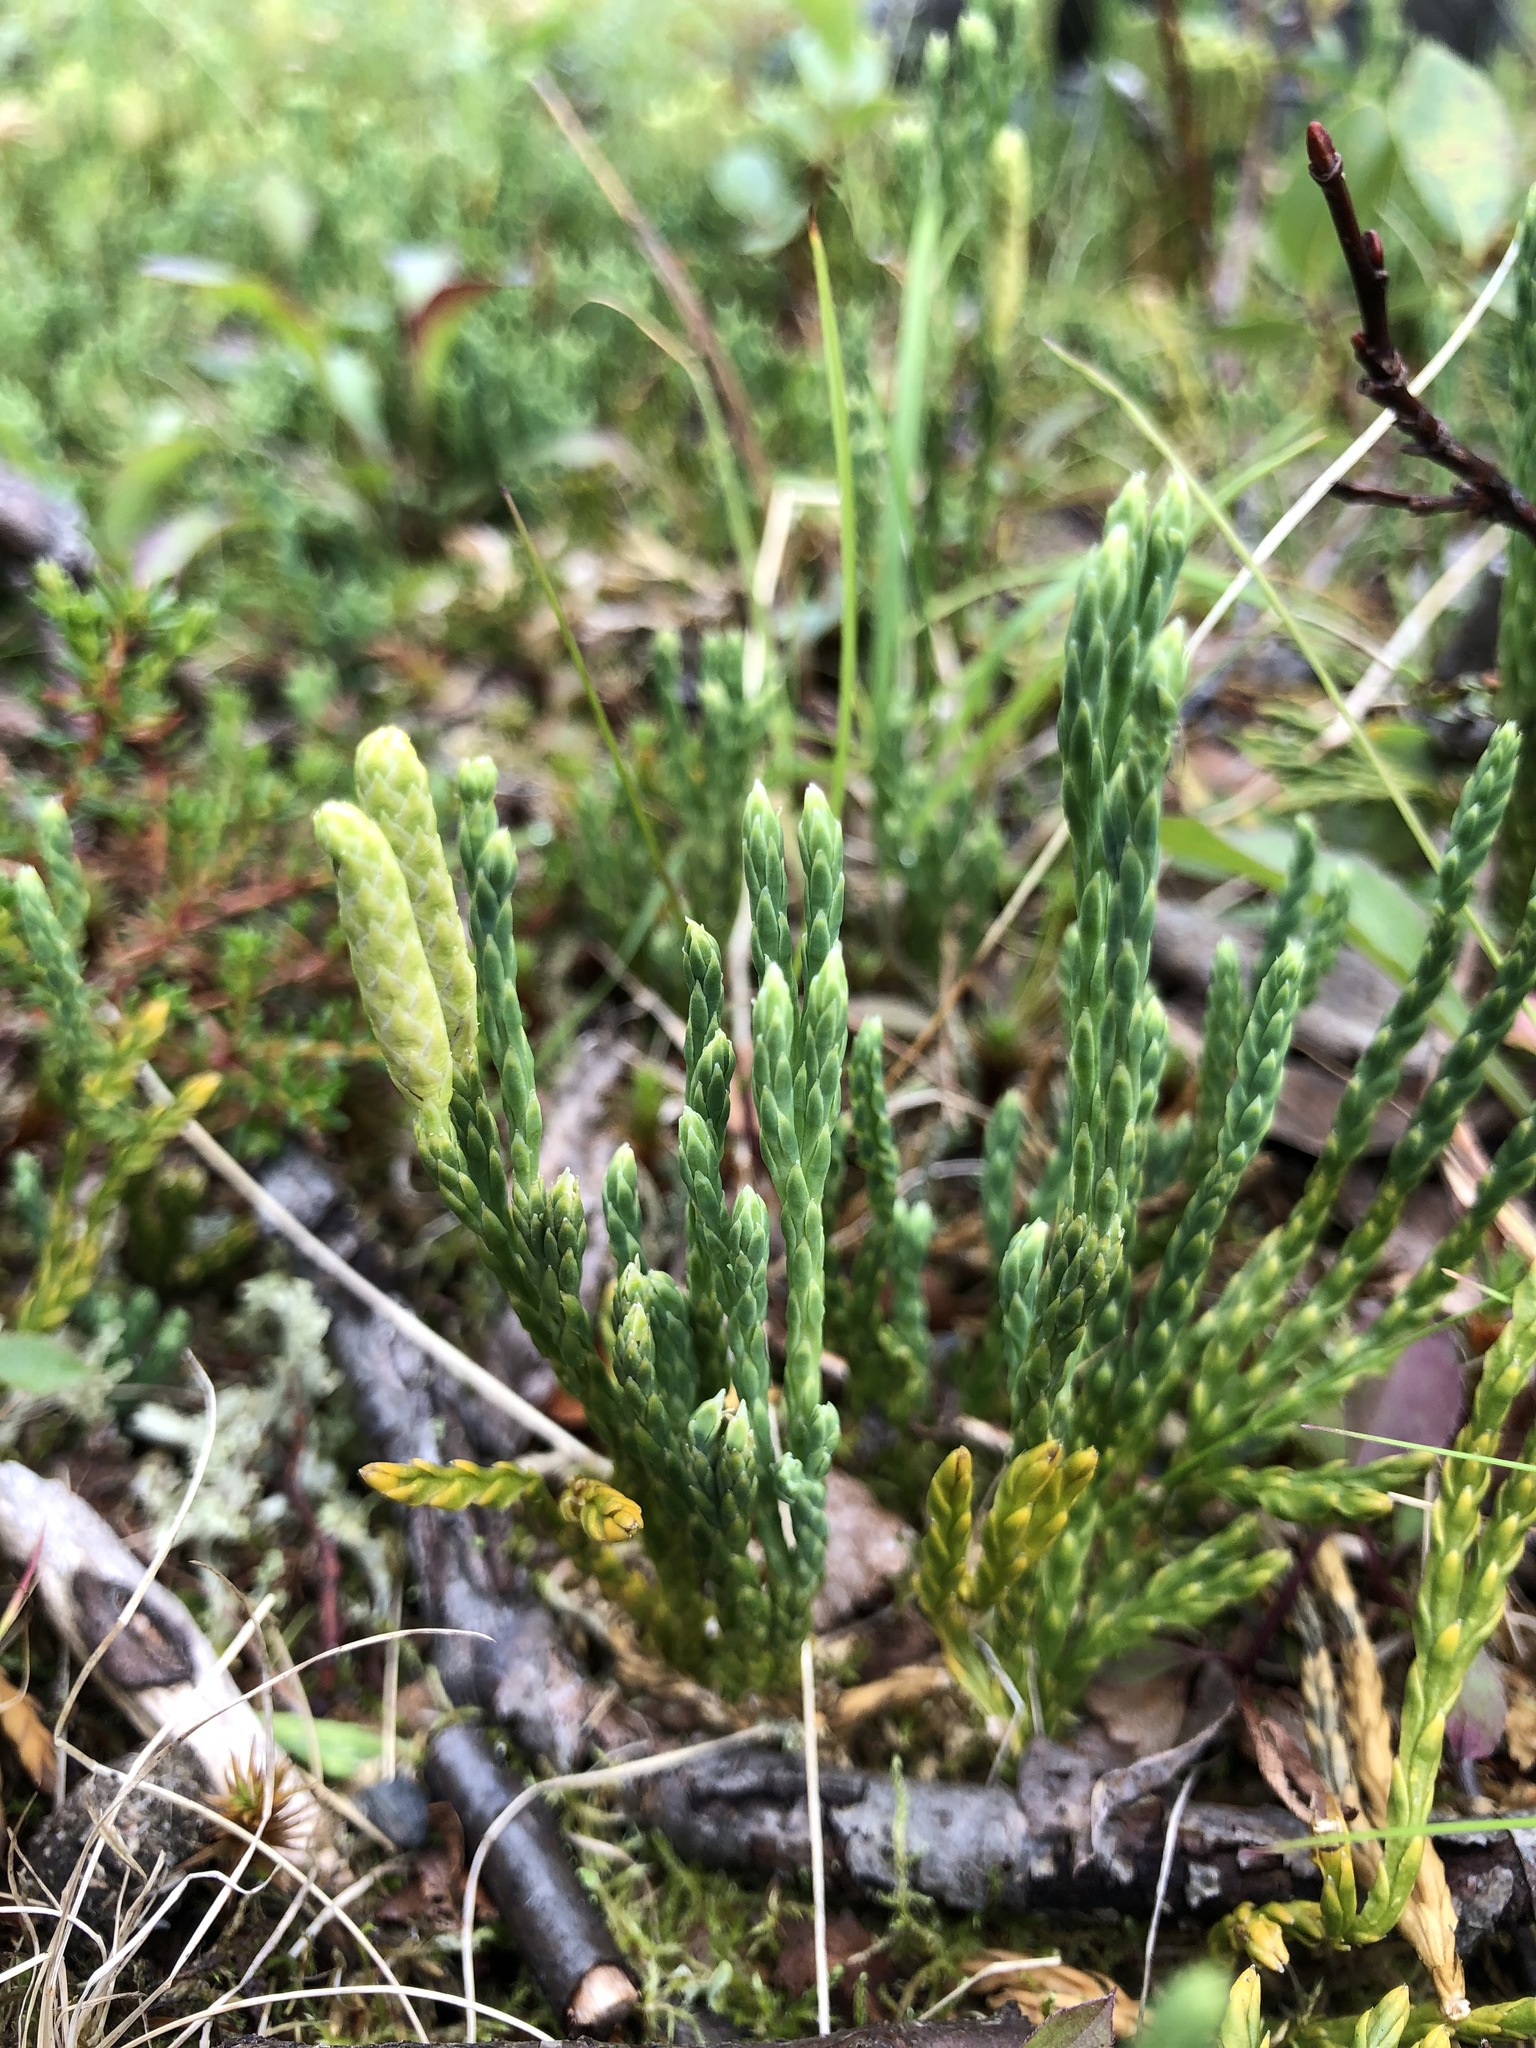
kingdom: Plantae
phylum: Tracheophyta
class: Lycopodiopsida
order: Lycopodiales
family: Lycopodiaceae
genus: Diphasiastrum
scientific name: Diphasiastrum alpinum
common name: Alpine clubmoss
